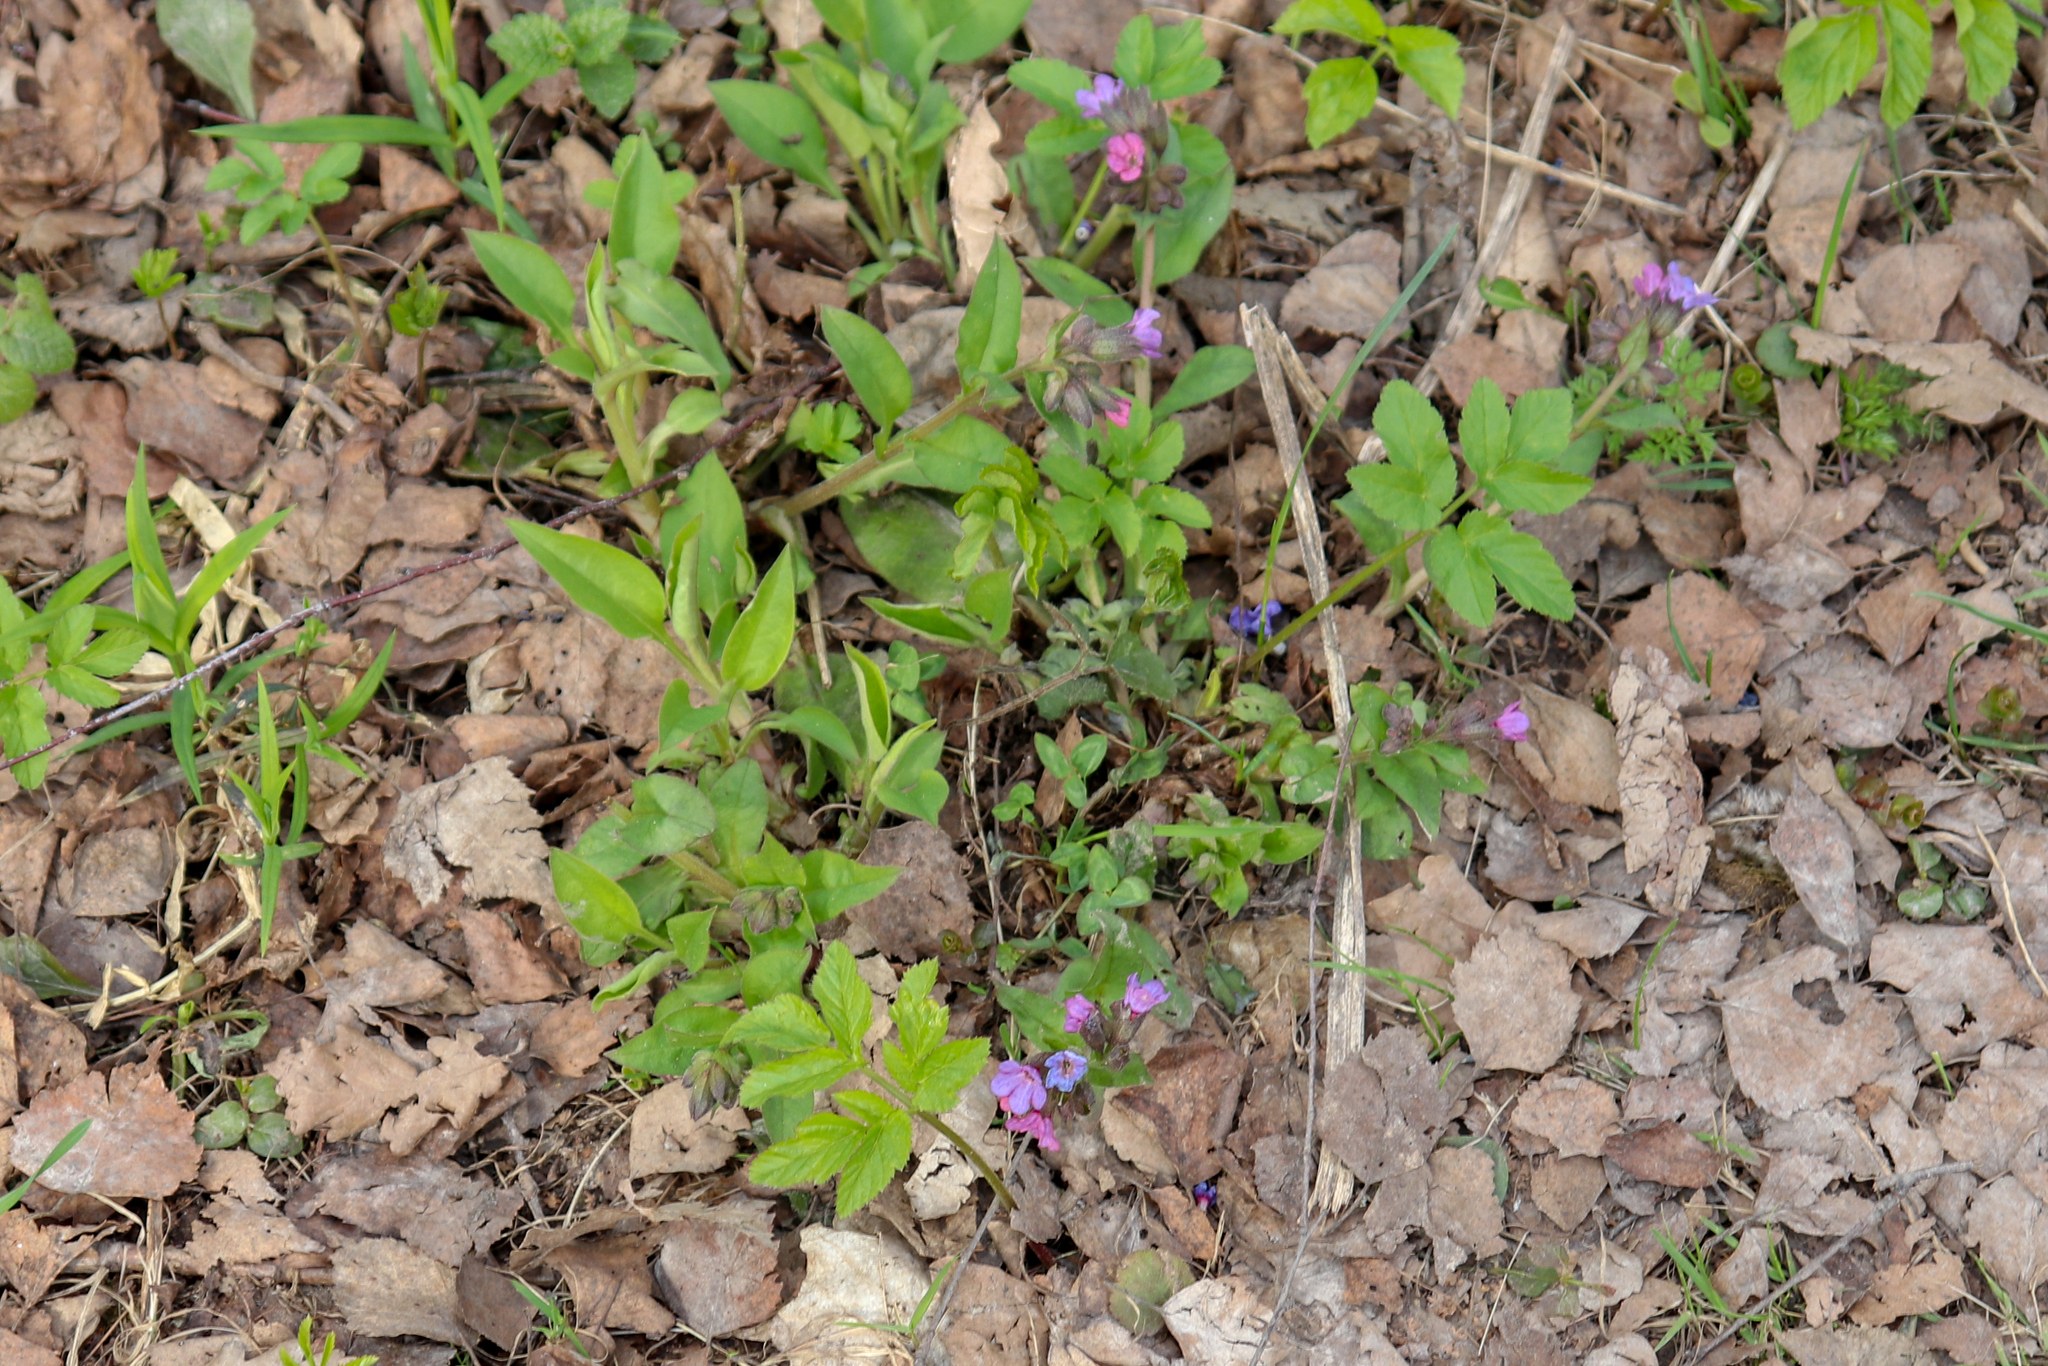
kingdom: Plantae
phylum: Tracheophyta
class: Magnoliopsida
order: Boraginales
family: Boraginaceae
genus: Pulmonaria
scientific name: Pulmonaria obscura
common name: Suffolk lungwort
